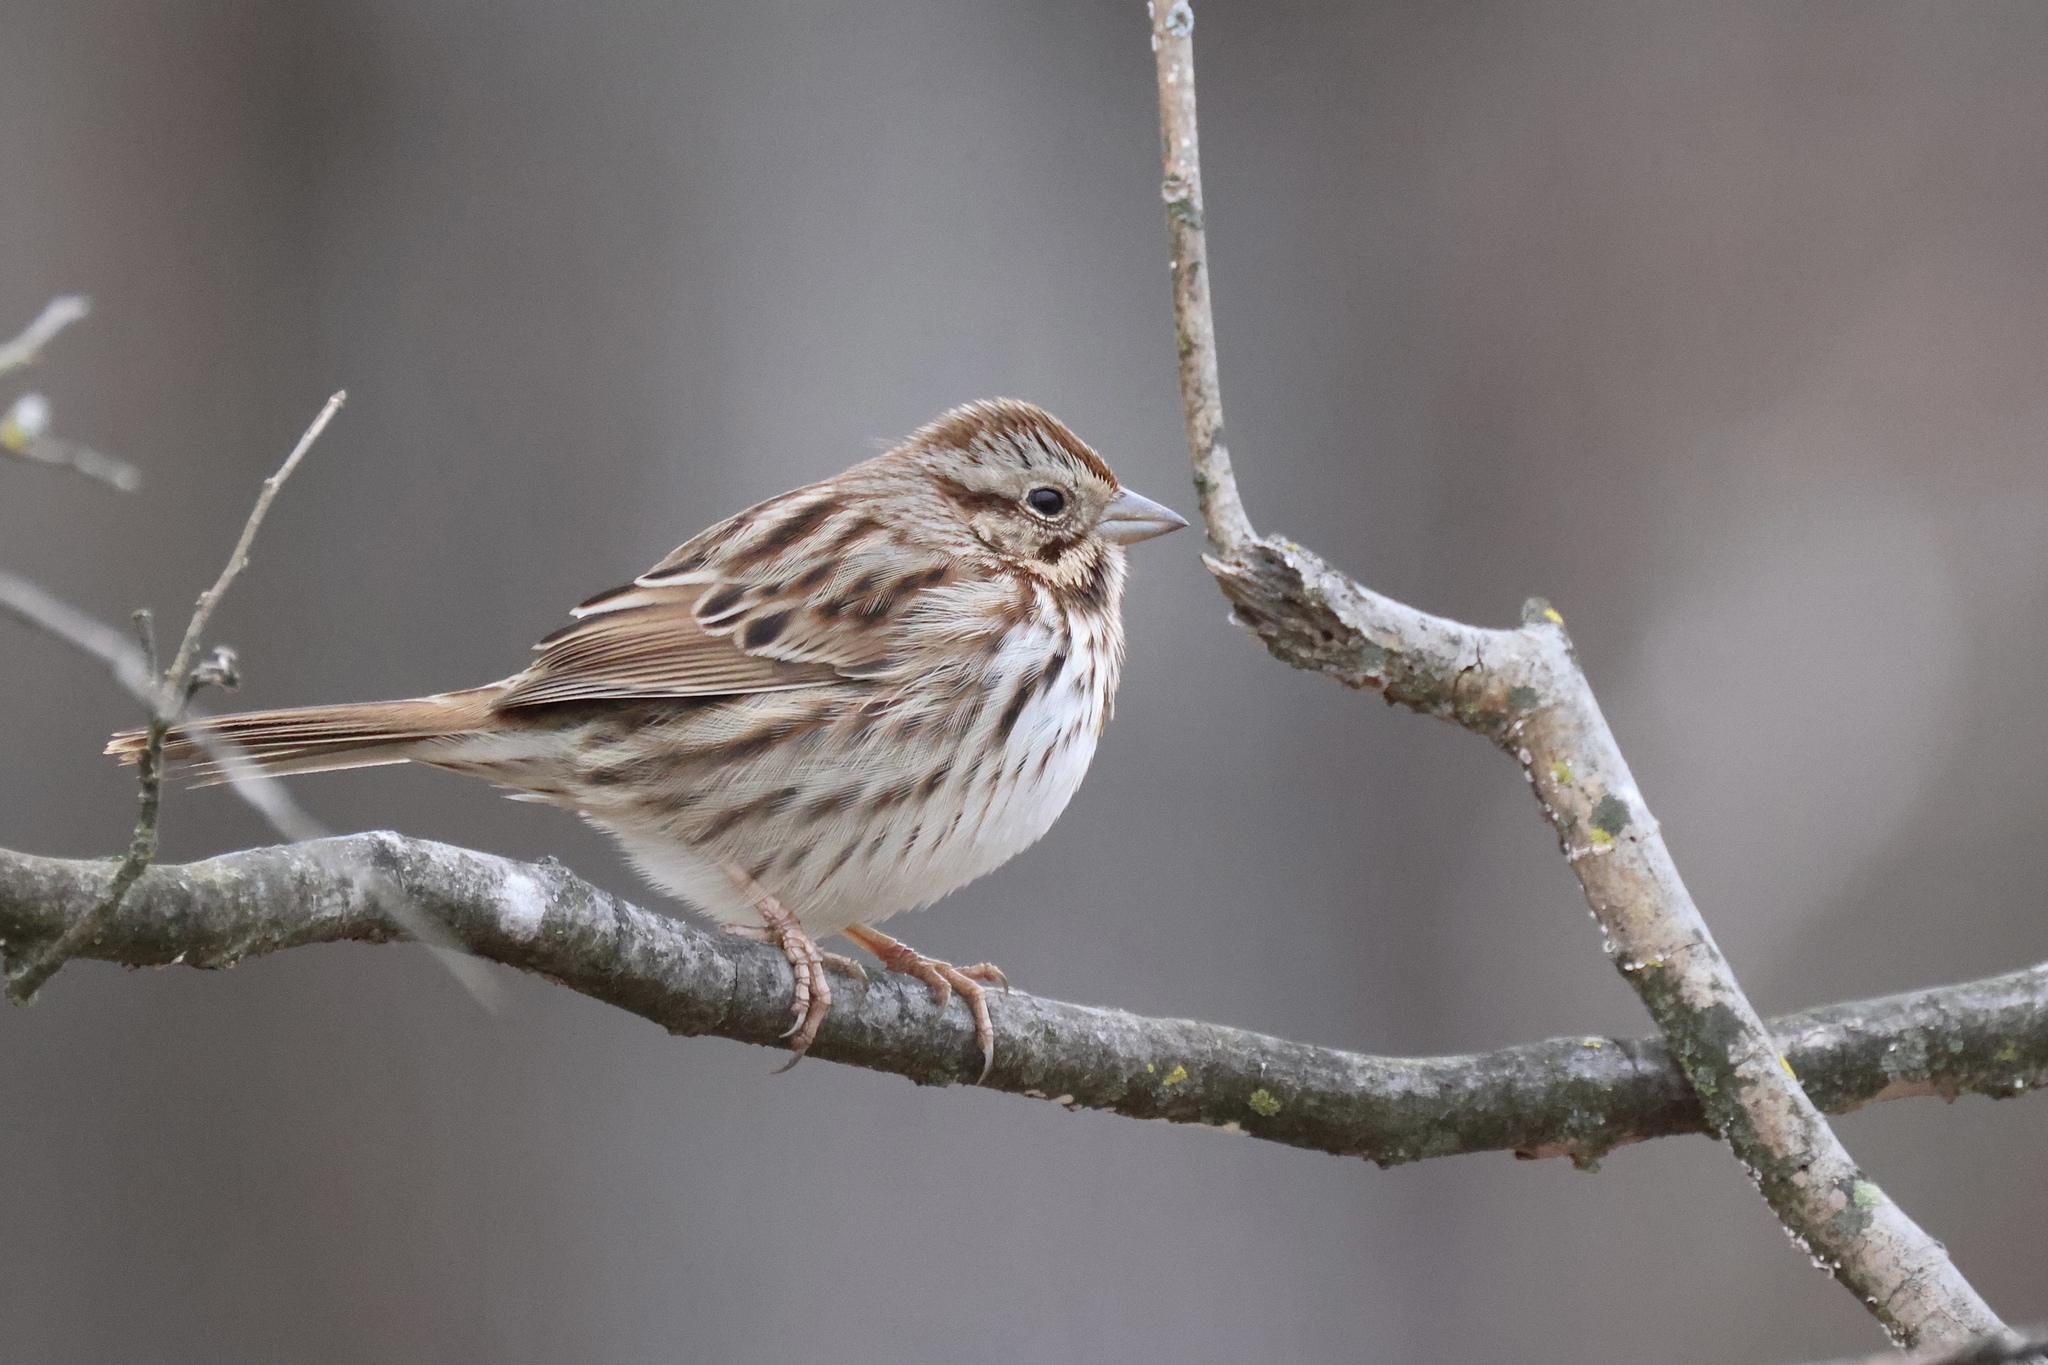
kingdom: Animalia
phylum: Chordata
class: Aves
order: Passeriformes
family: Passerellidae
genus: Melospiza
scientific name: Melospiza melodia
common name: Song sparrow
